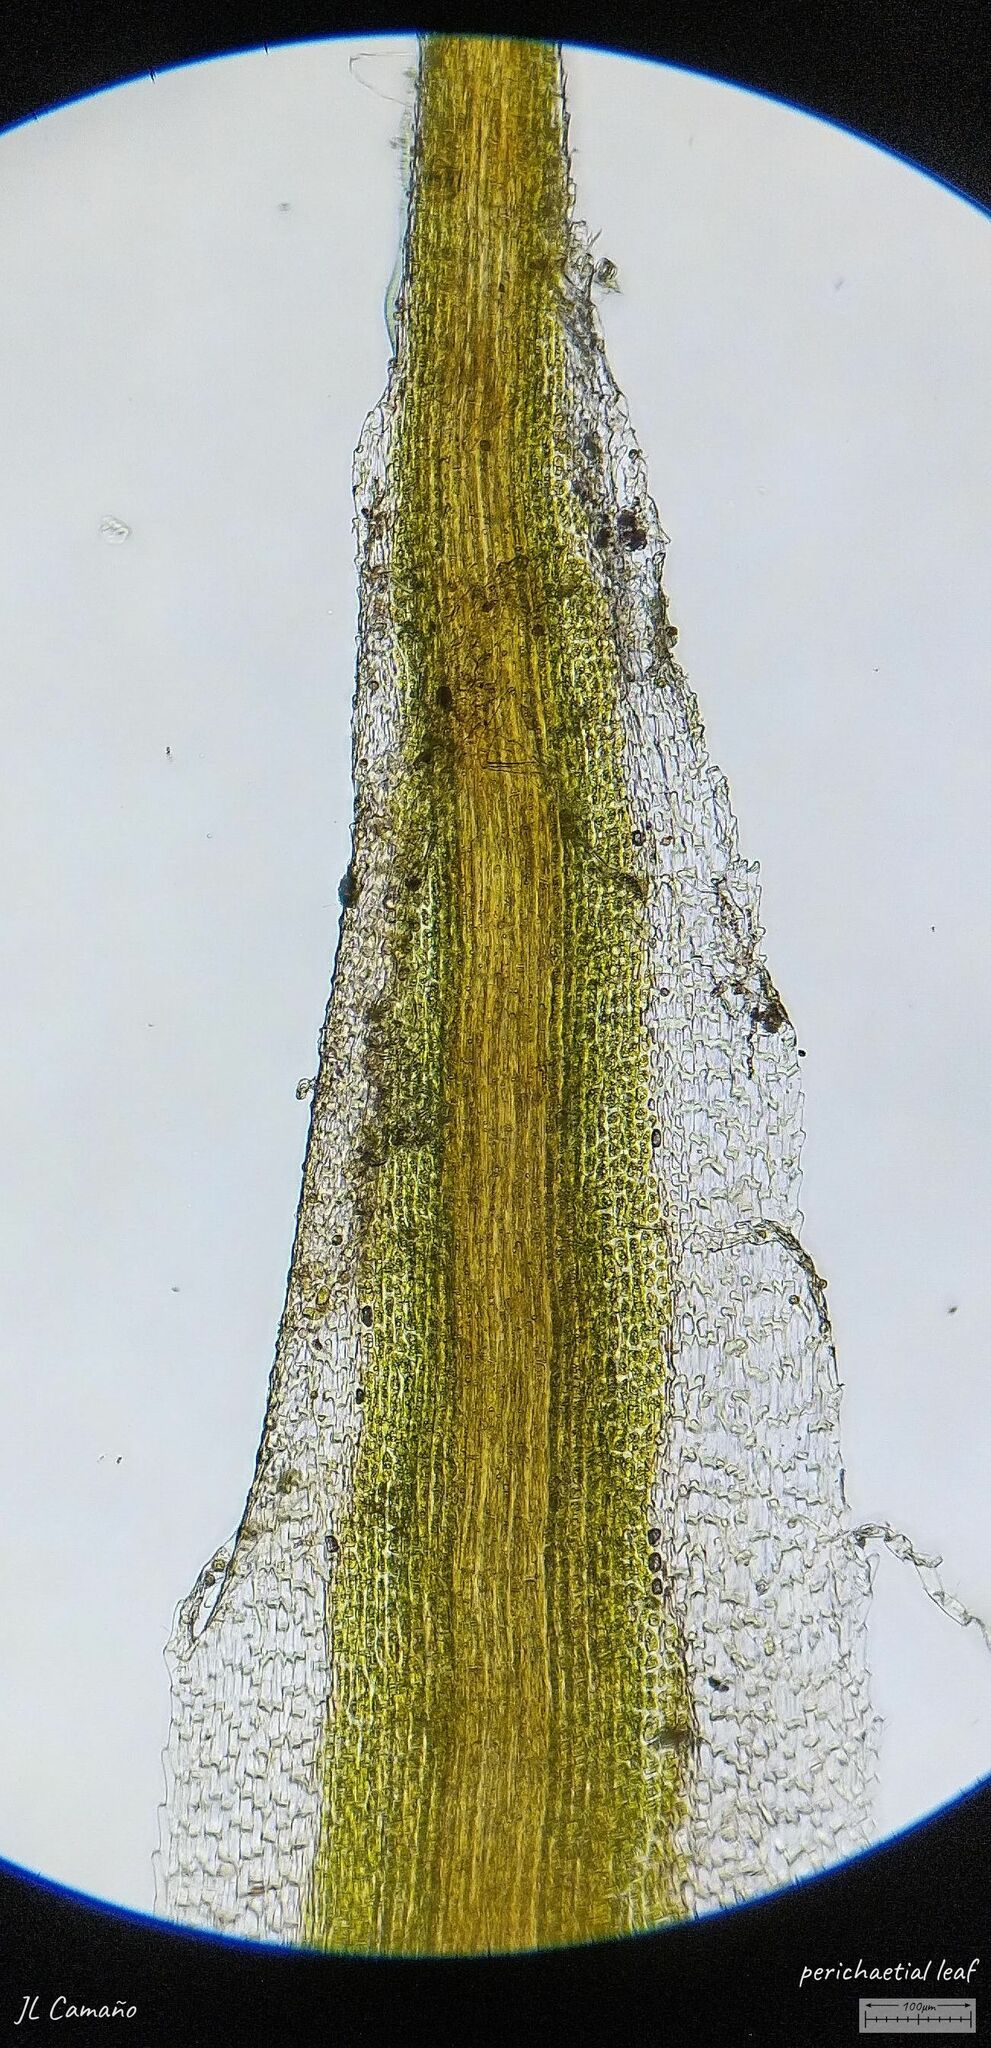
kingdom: Plantae
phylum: Bryophyta
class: Bryopsida
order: Diphysciales
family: Diphysciaceae
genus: Diphyscium
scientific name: Diphyscium foliosum
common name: Nut moss
